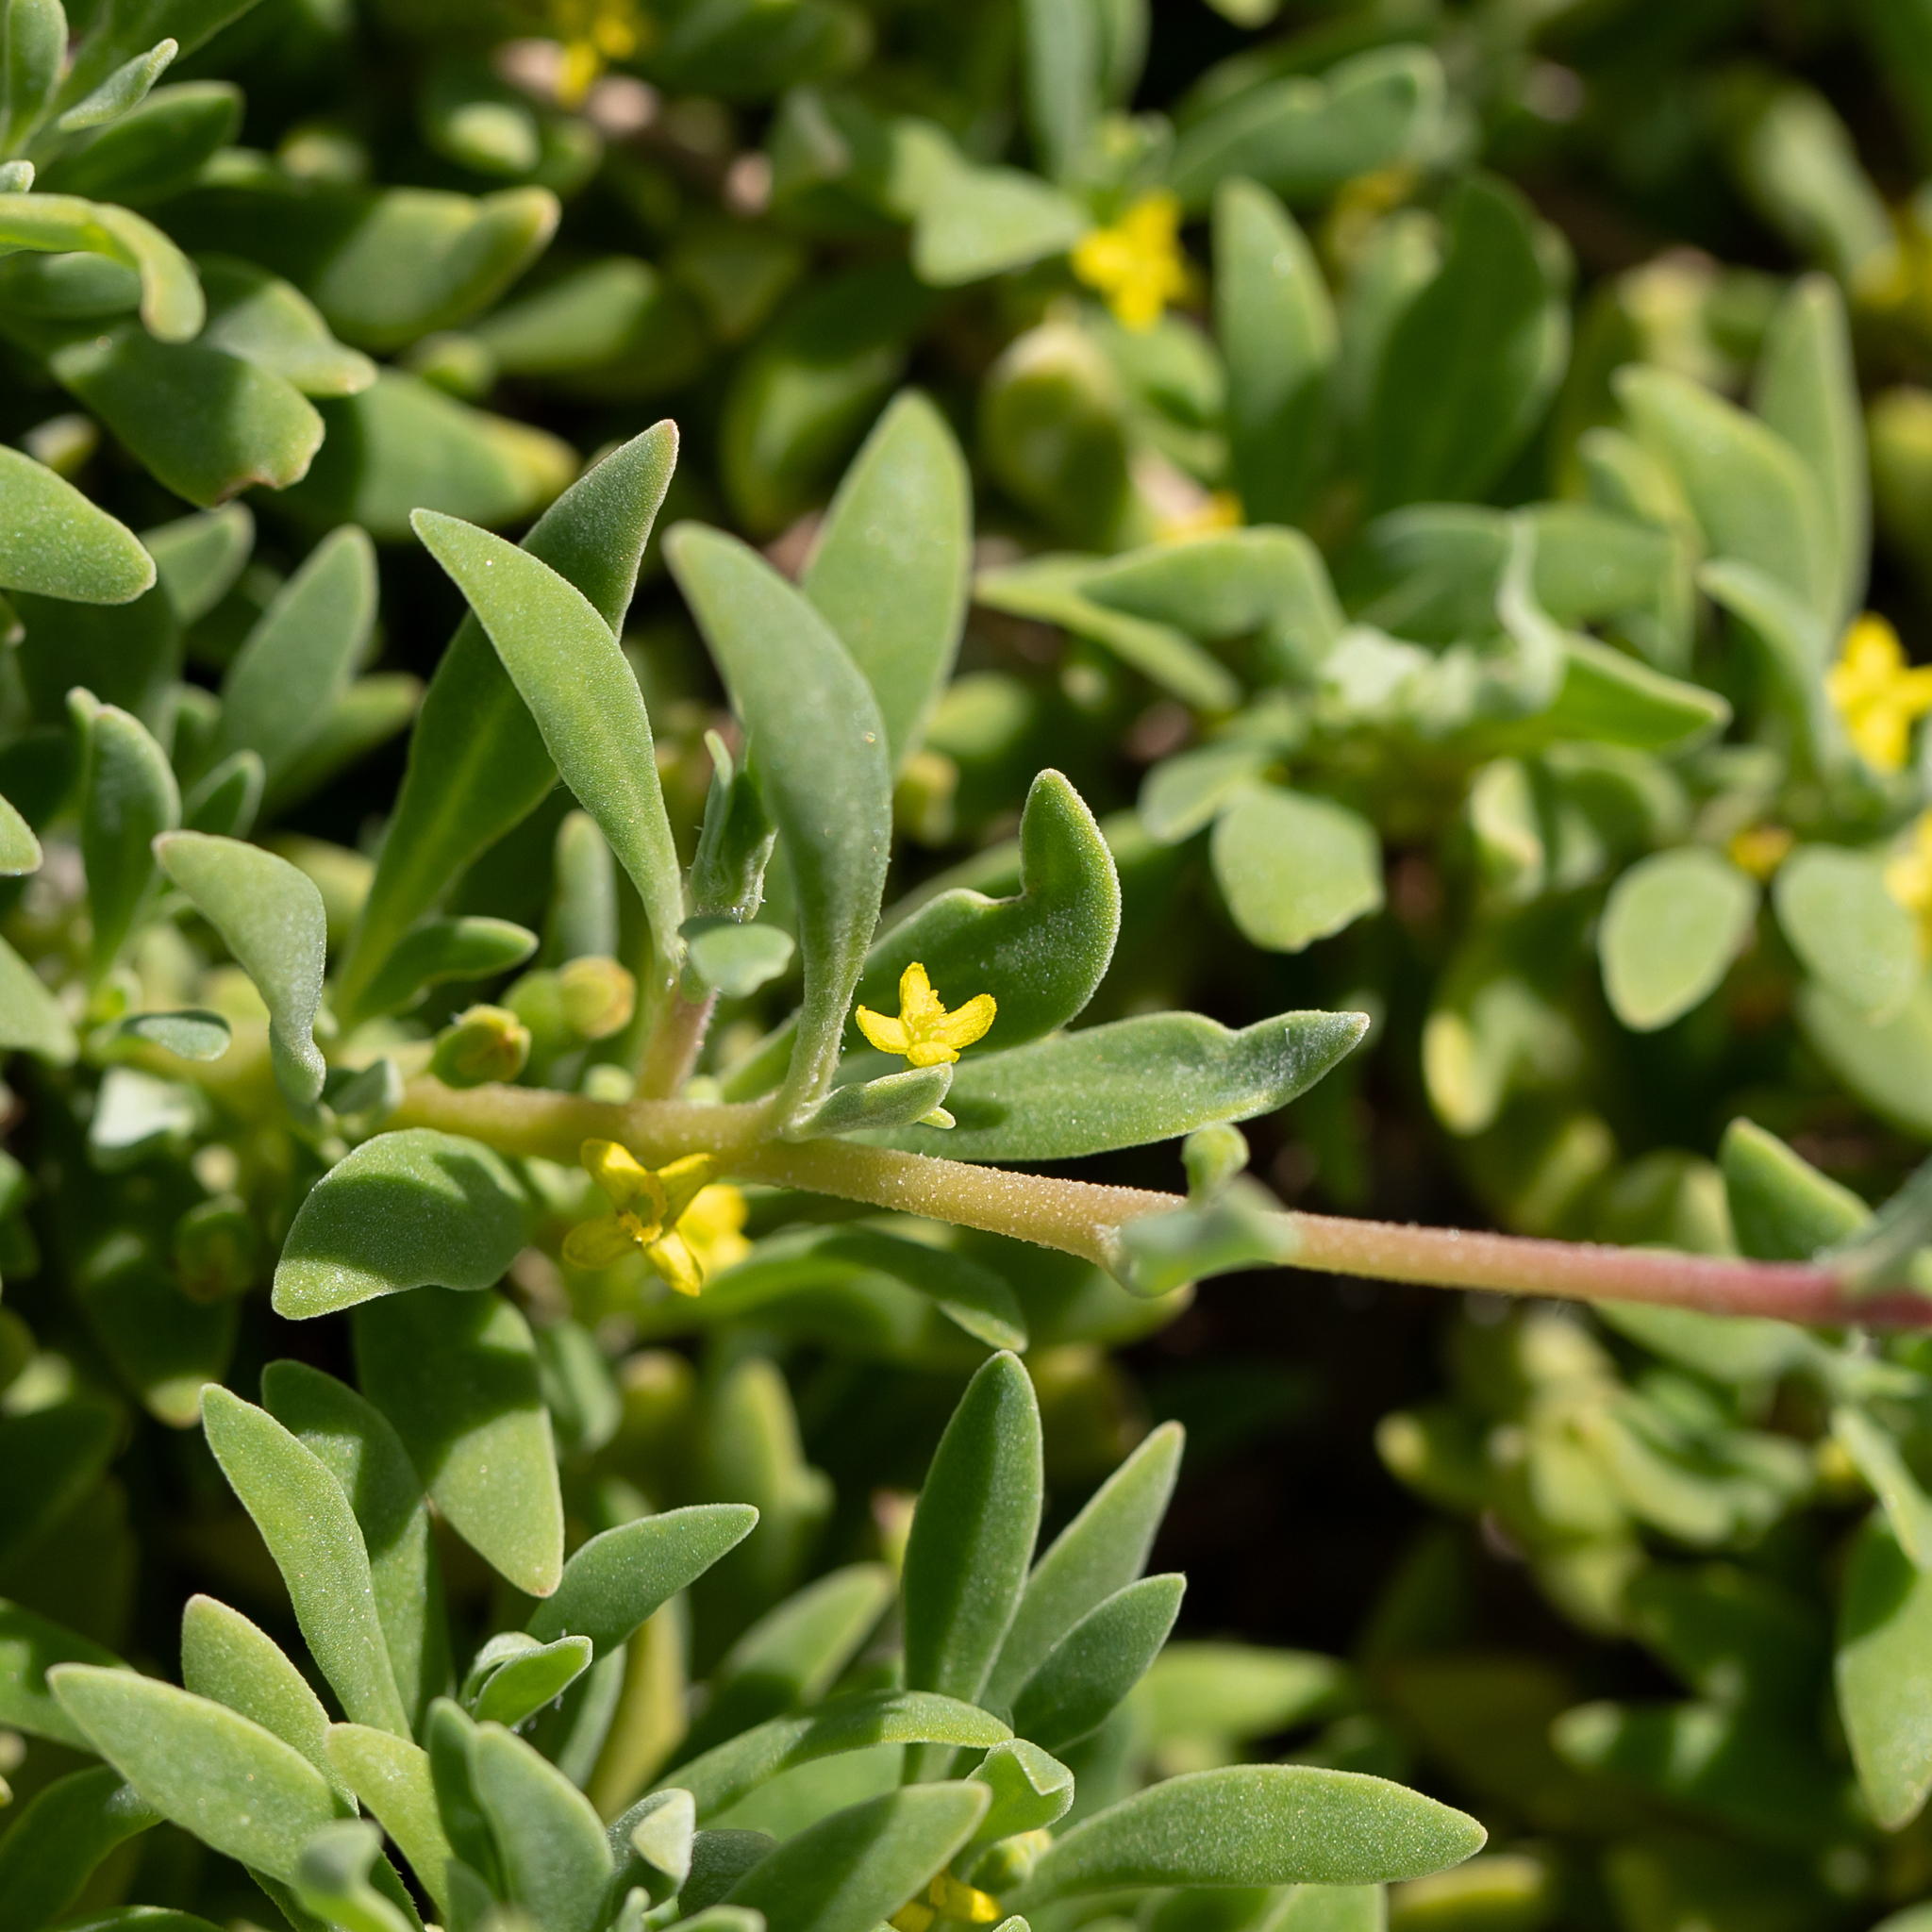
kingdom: Plantae
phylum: Tracheophyta
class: Magnoliopsida
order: Caryophyllales
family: Aizoaceae
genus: Tetragonia
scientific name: Tetragonia implexicoma
